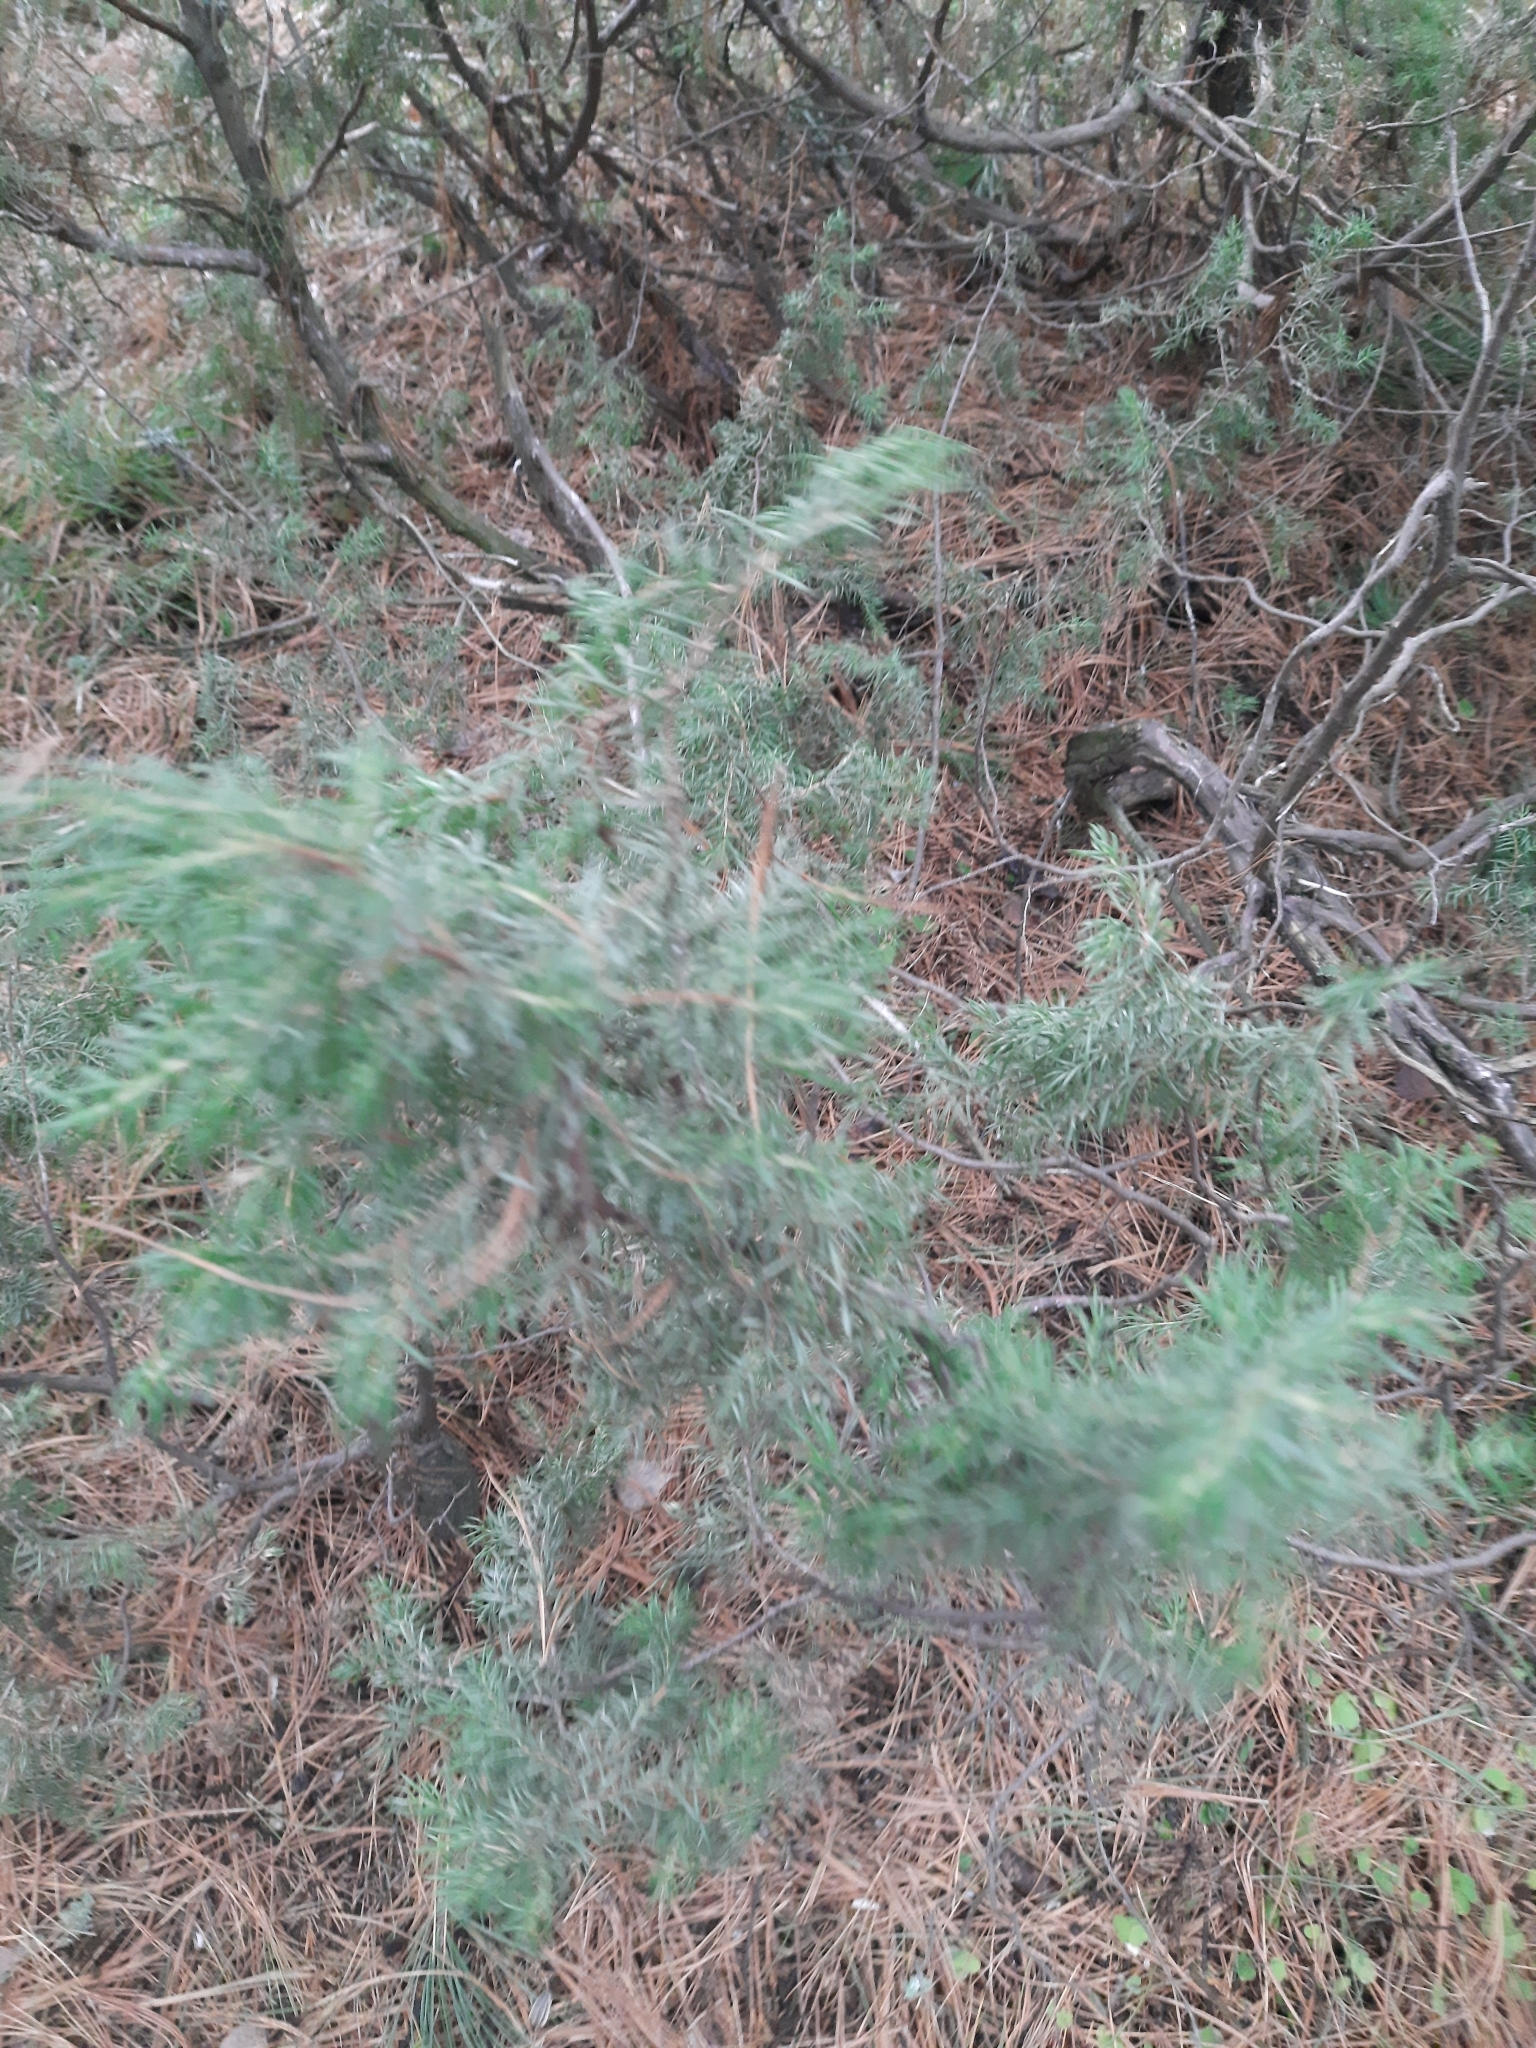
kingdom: Plantae
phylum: Tracheophyta
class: Pinopsida
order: Pinales
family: Cupressaceae
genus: Juniperus
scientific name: Juniperus communis
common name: Common juniper
